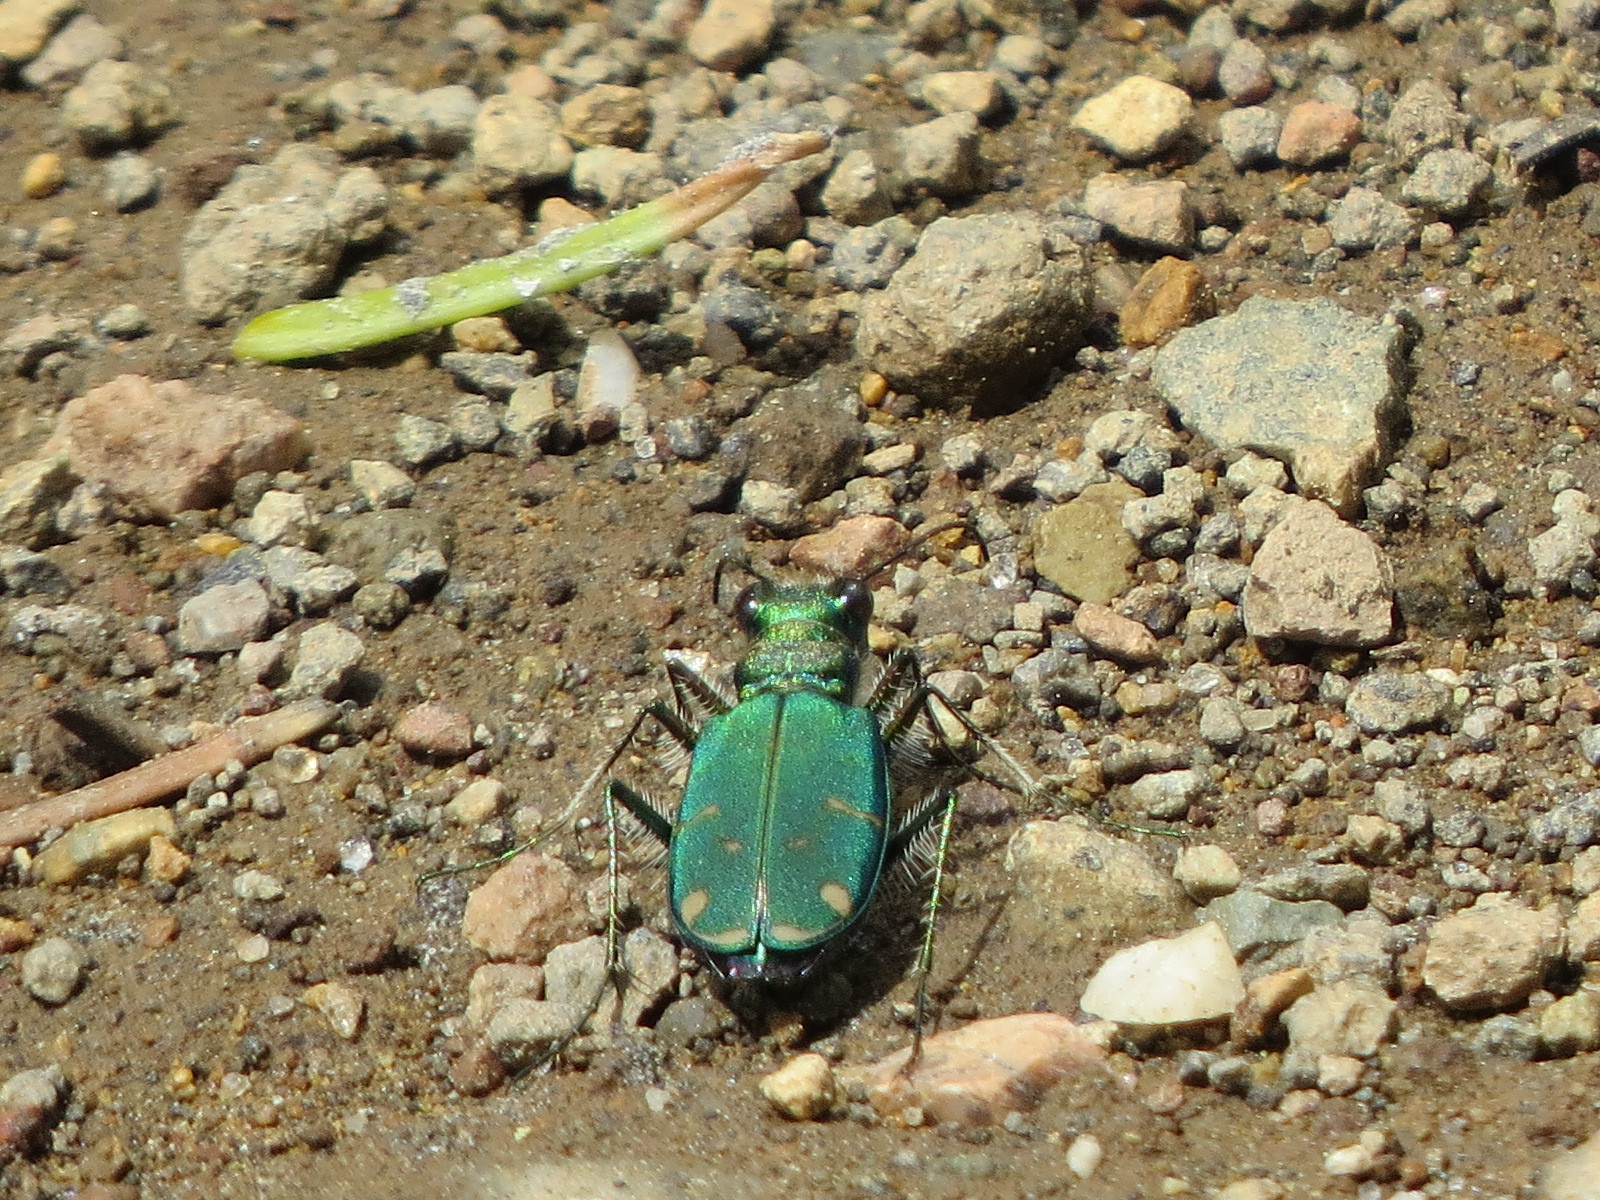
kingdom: Animalia
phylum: Arthropoda
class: Insecta
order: Coleoptera
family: Carabidae
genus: Cicindela
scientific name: Cicindela tranquebarica
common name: Oblique-lined tiger beetle
